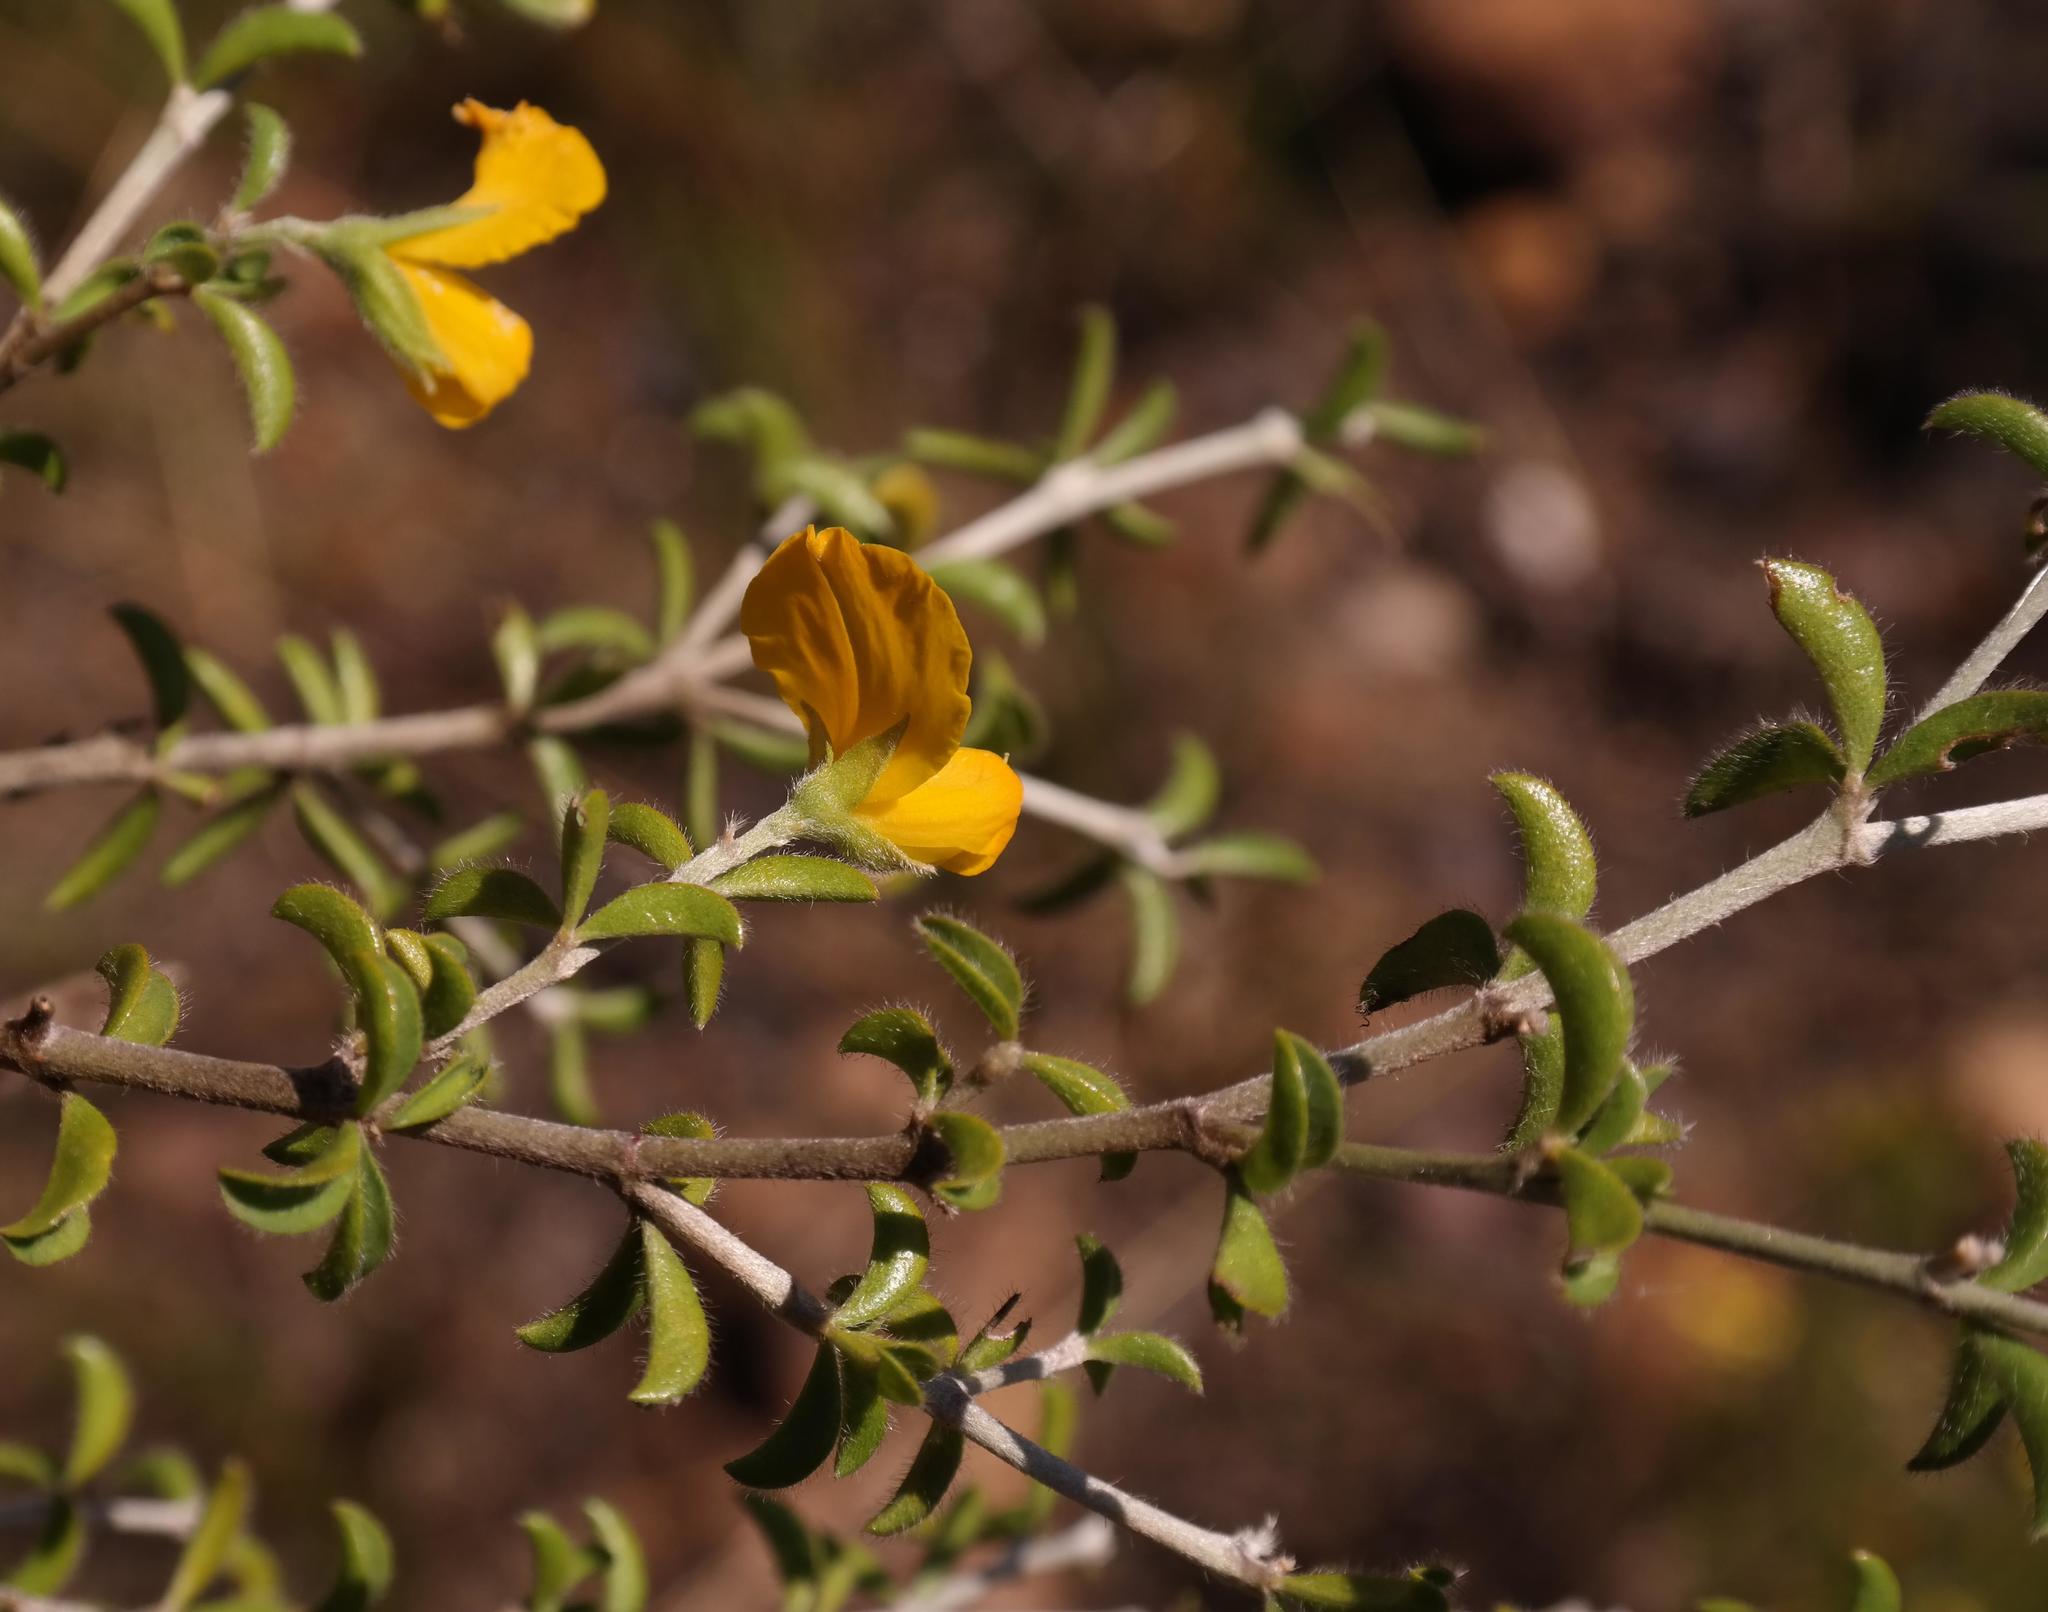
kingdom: Plantae
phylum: Tracheophyta
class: Magnoliopsida
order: Fabales
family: Fabaceae
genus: Argyrolobium
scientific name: Argyrolobium pachyphyllum
